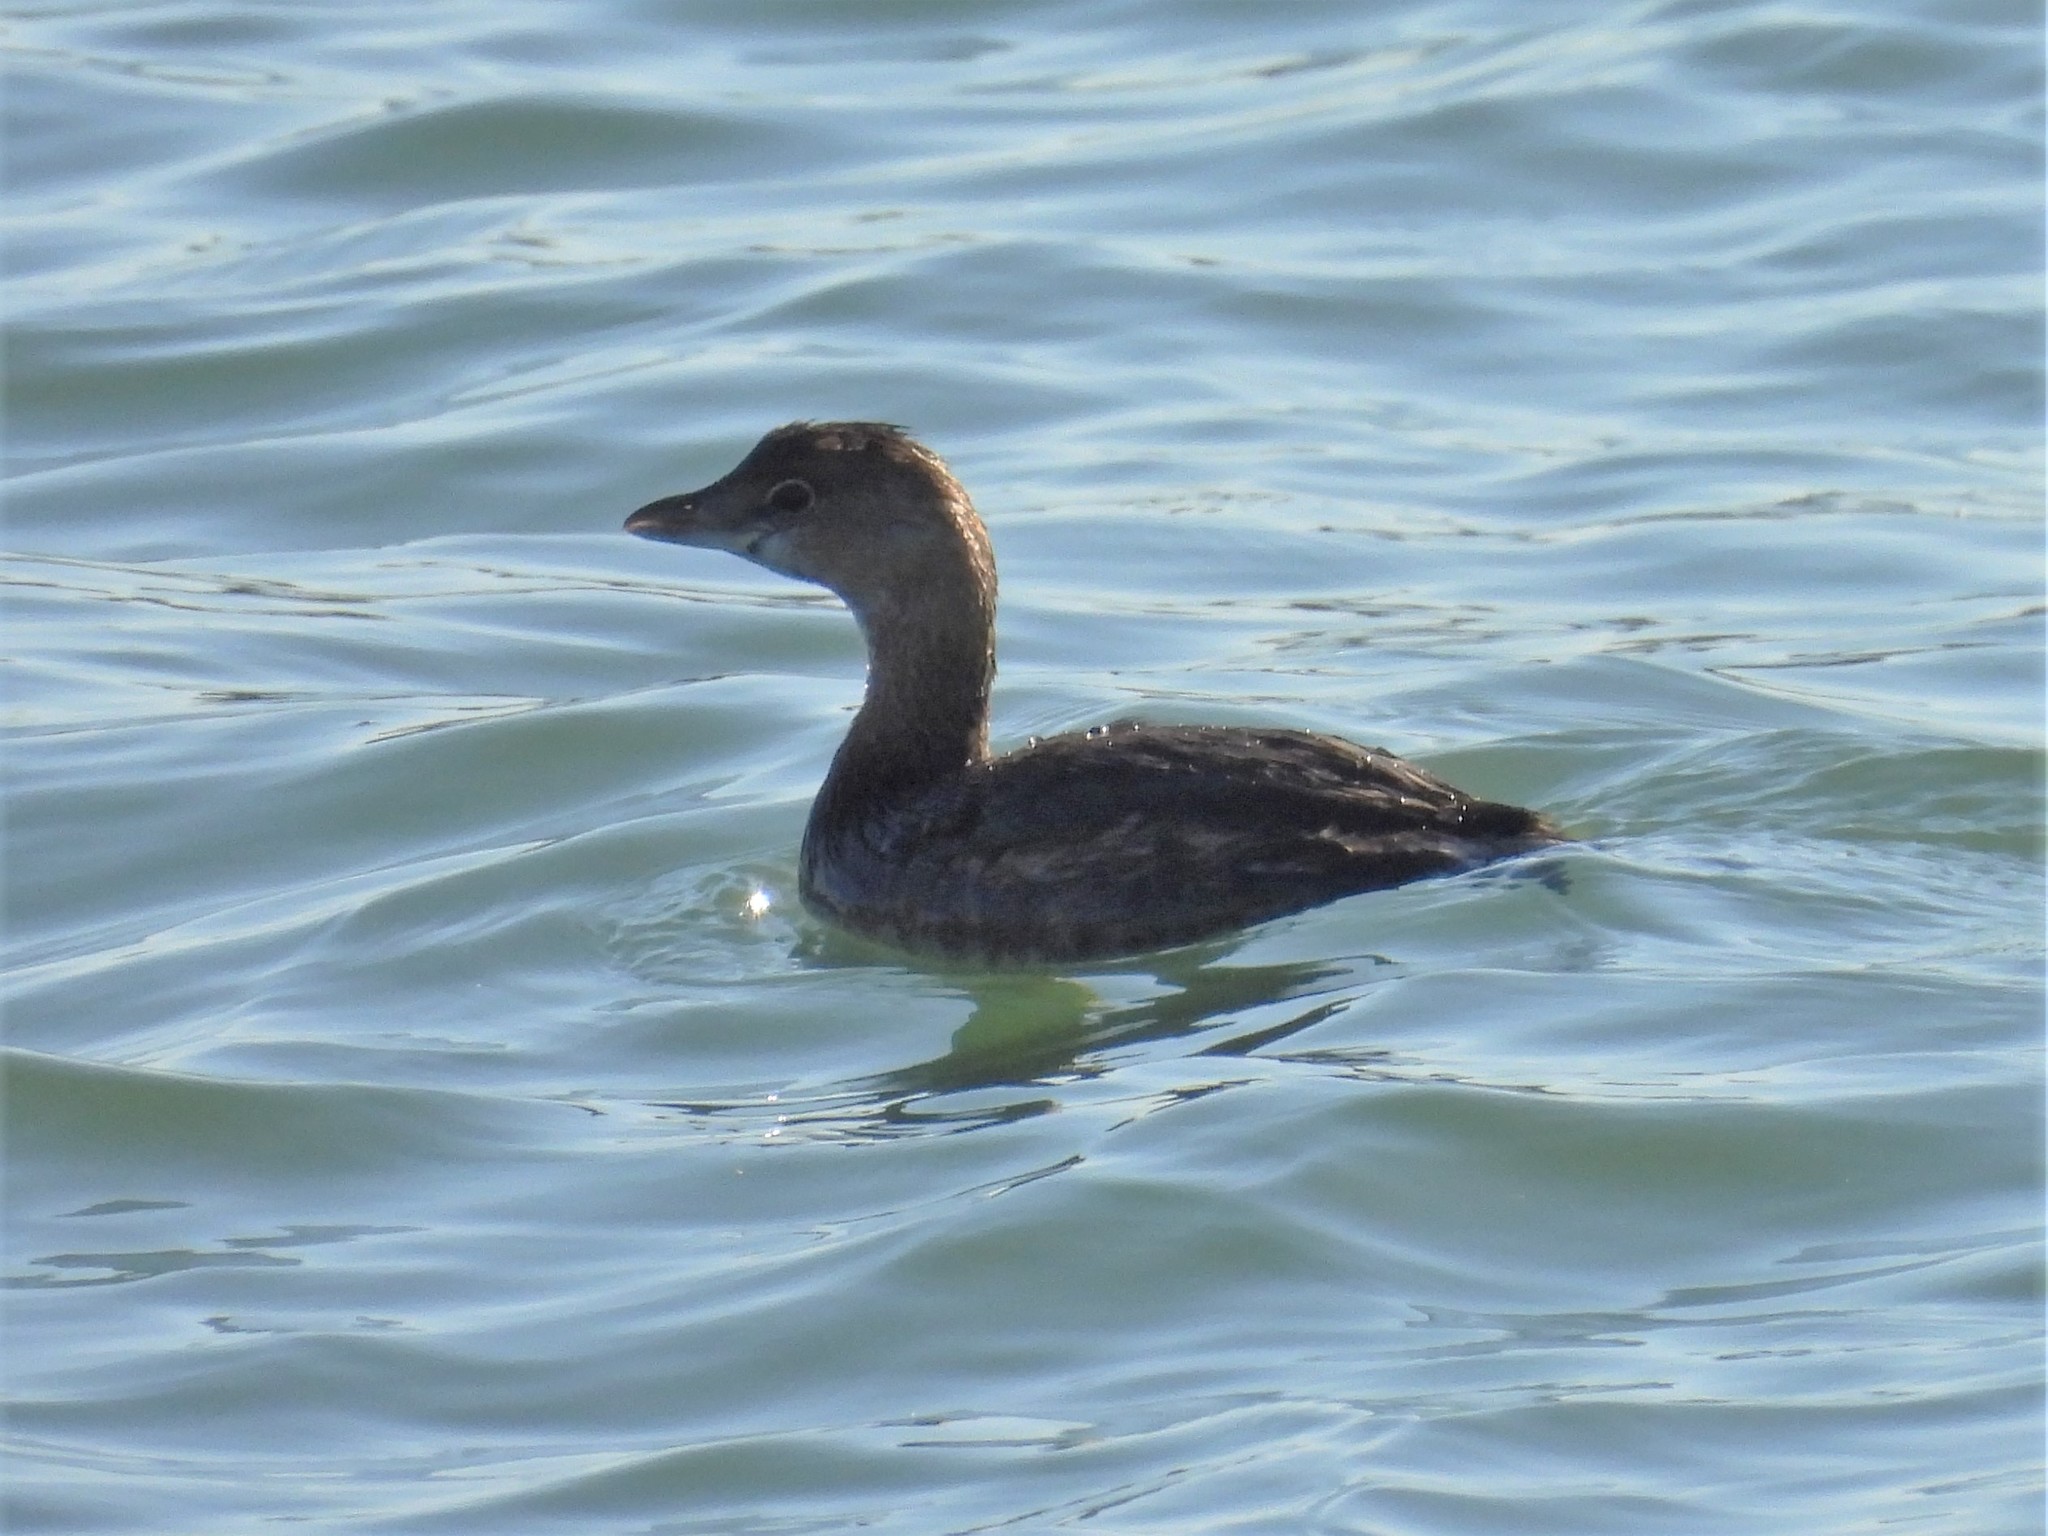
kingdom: Animalia
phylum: Chordata
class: Aves
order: Podicipediformes
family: Podicipedidae
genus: Podilymbus
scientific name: Podilymbus podiceps
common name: Pied-billed grebe
